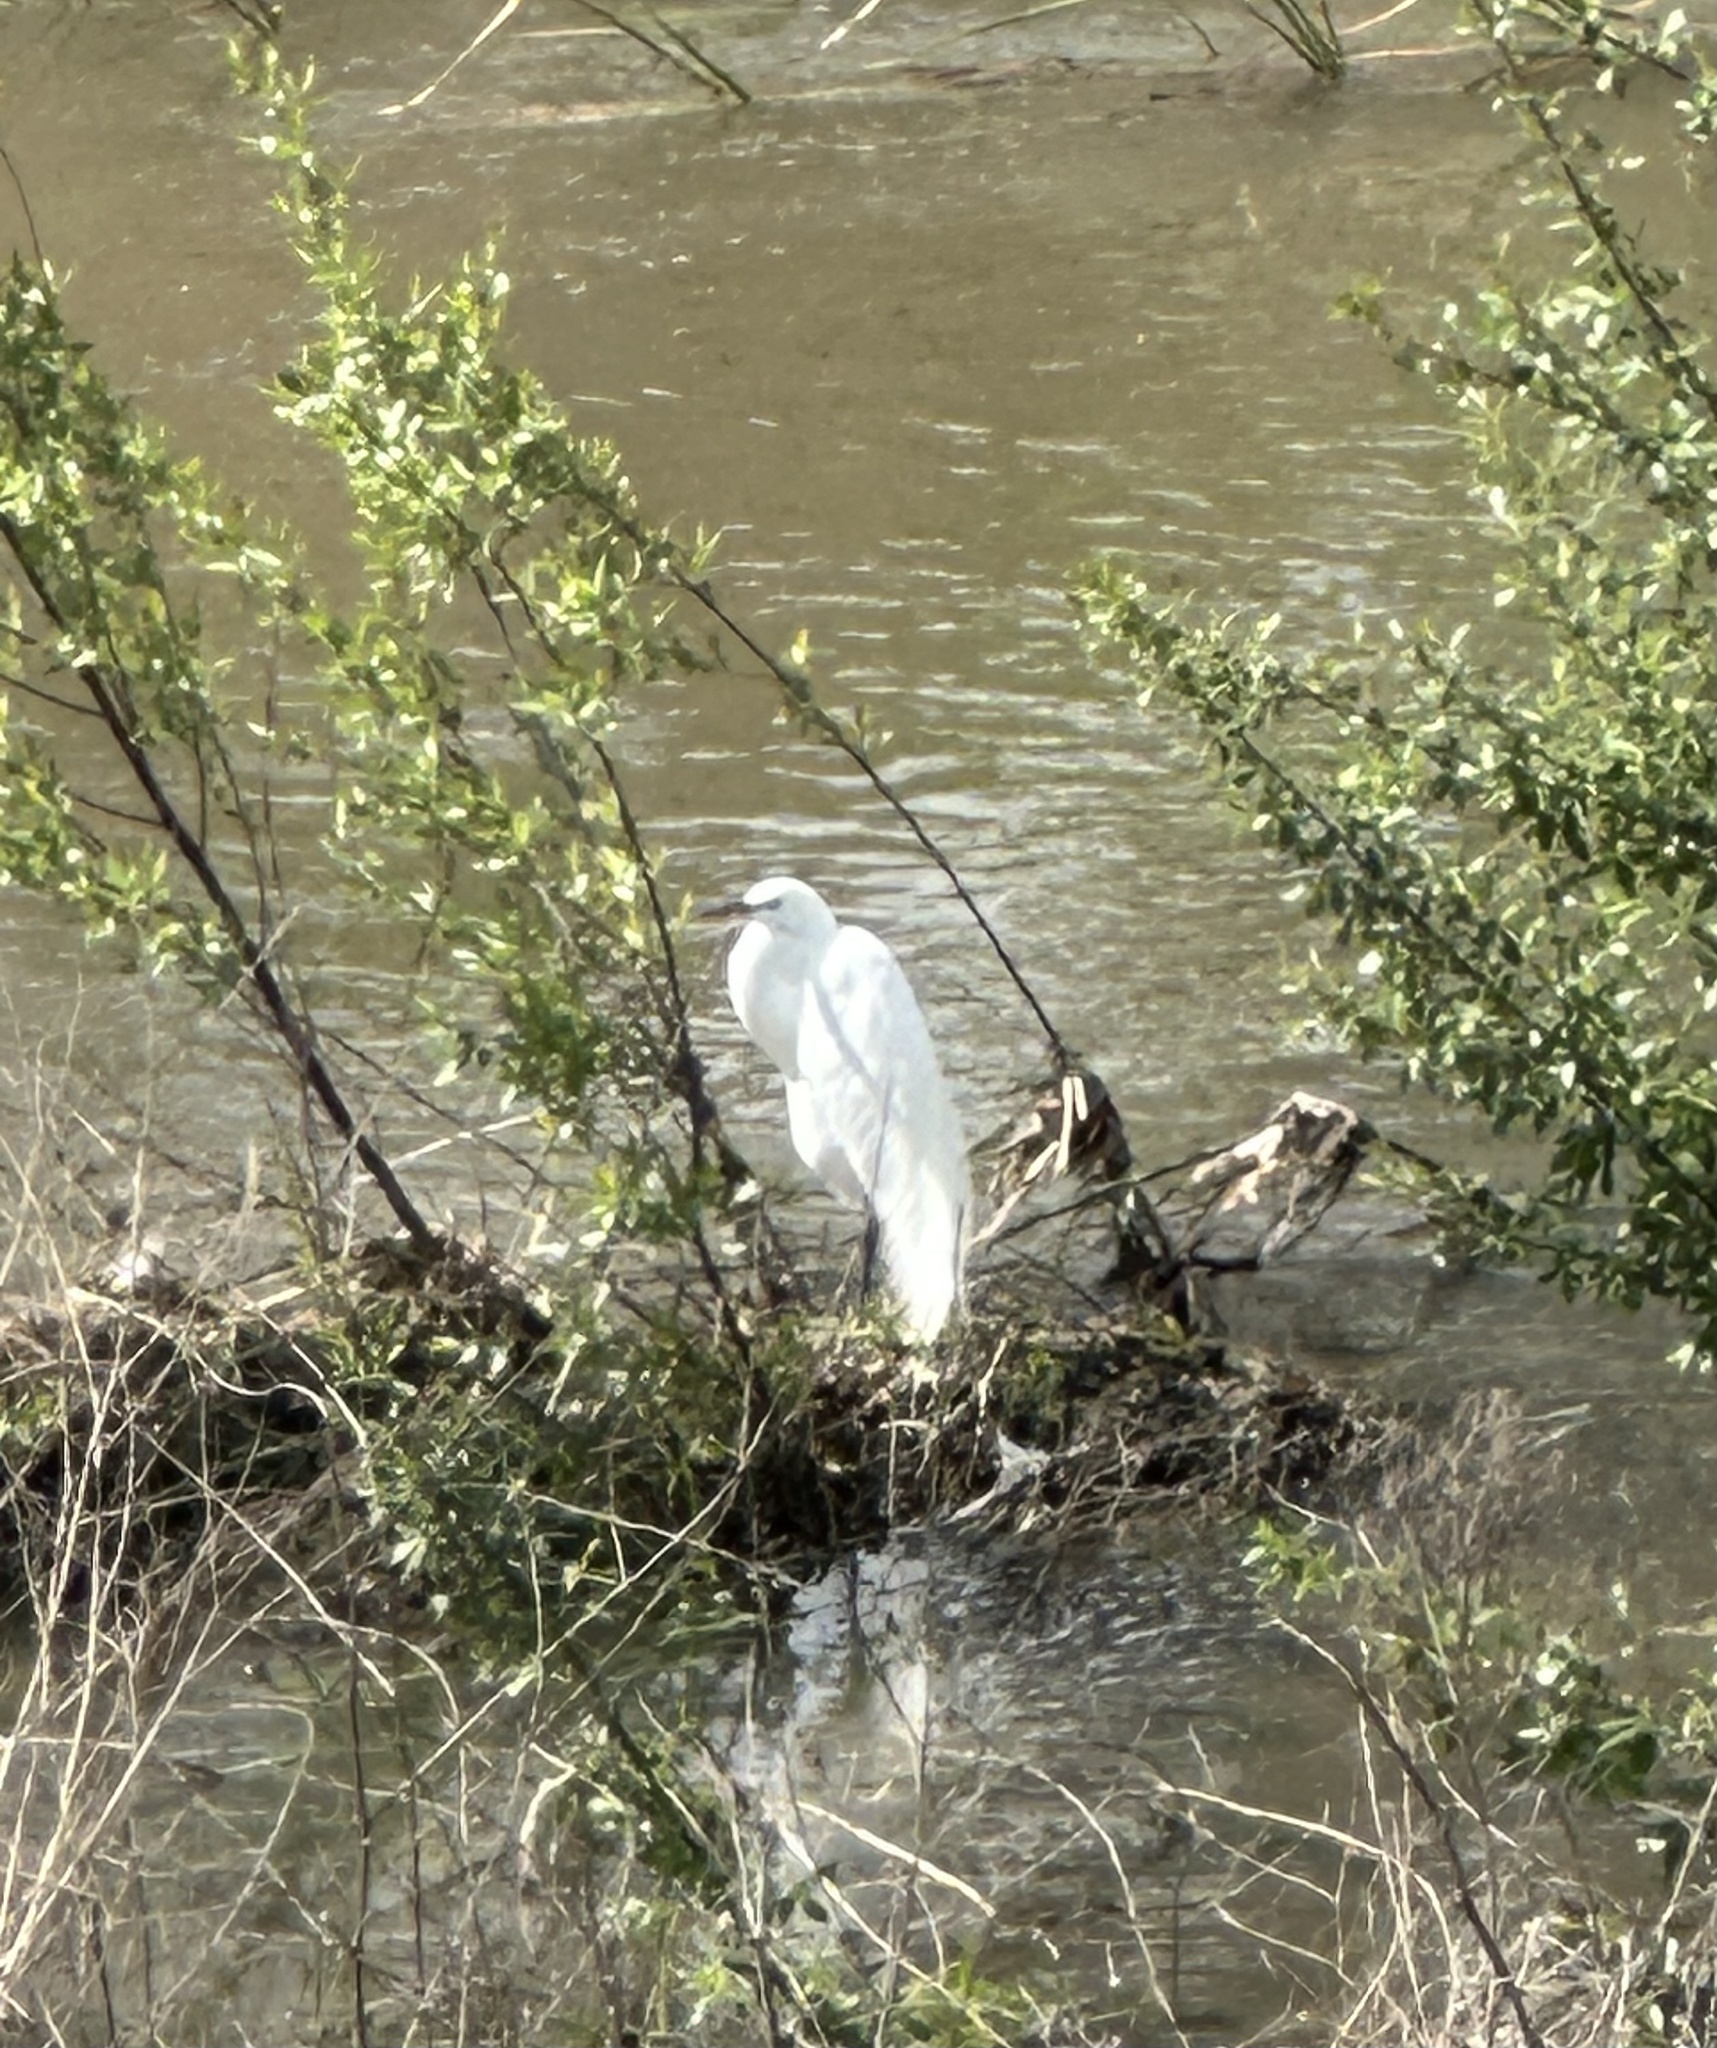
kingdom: Animalia
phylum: Chordata
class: Aves
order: Pelecaniformes
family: Ardeidae
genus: Ardea
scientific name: Ardea alba
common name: Great egret
